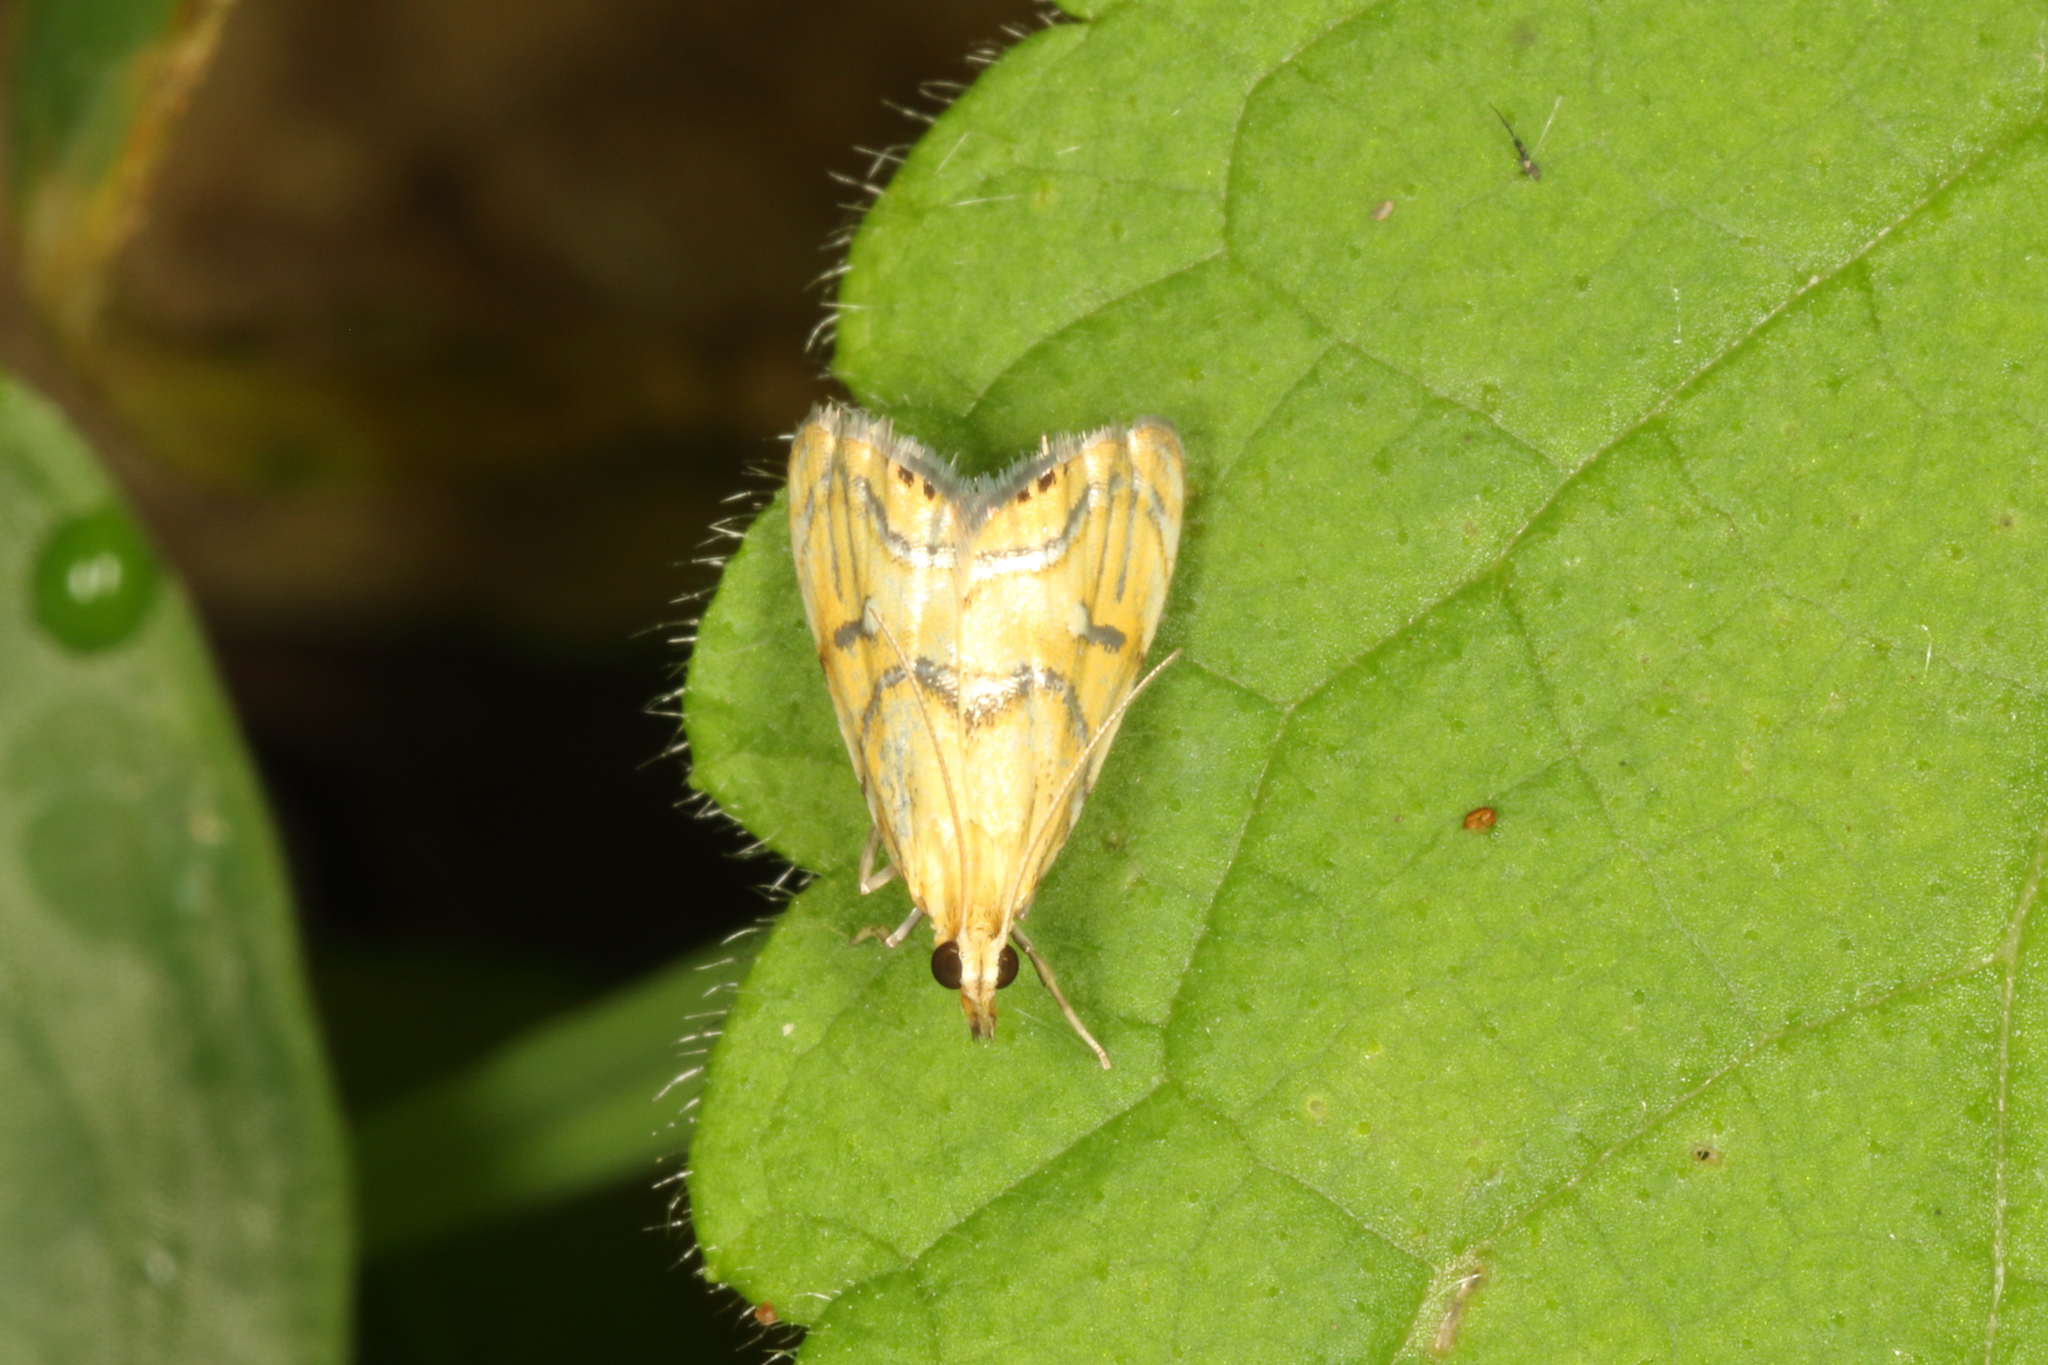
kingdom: Animalia
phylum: Arthropoda
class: Insecta
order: Lepidoptera
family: Crambidae
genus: Glaucocharis
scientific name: Glaucocharis auriscriptella
